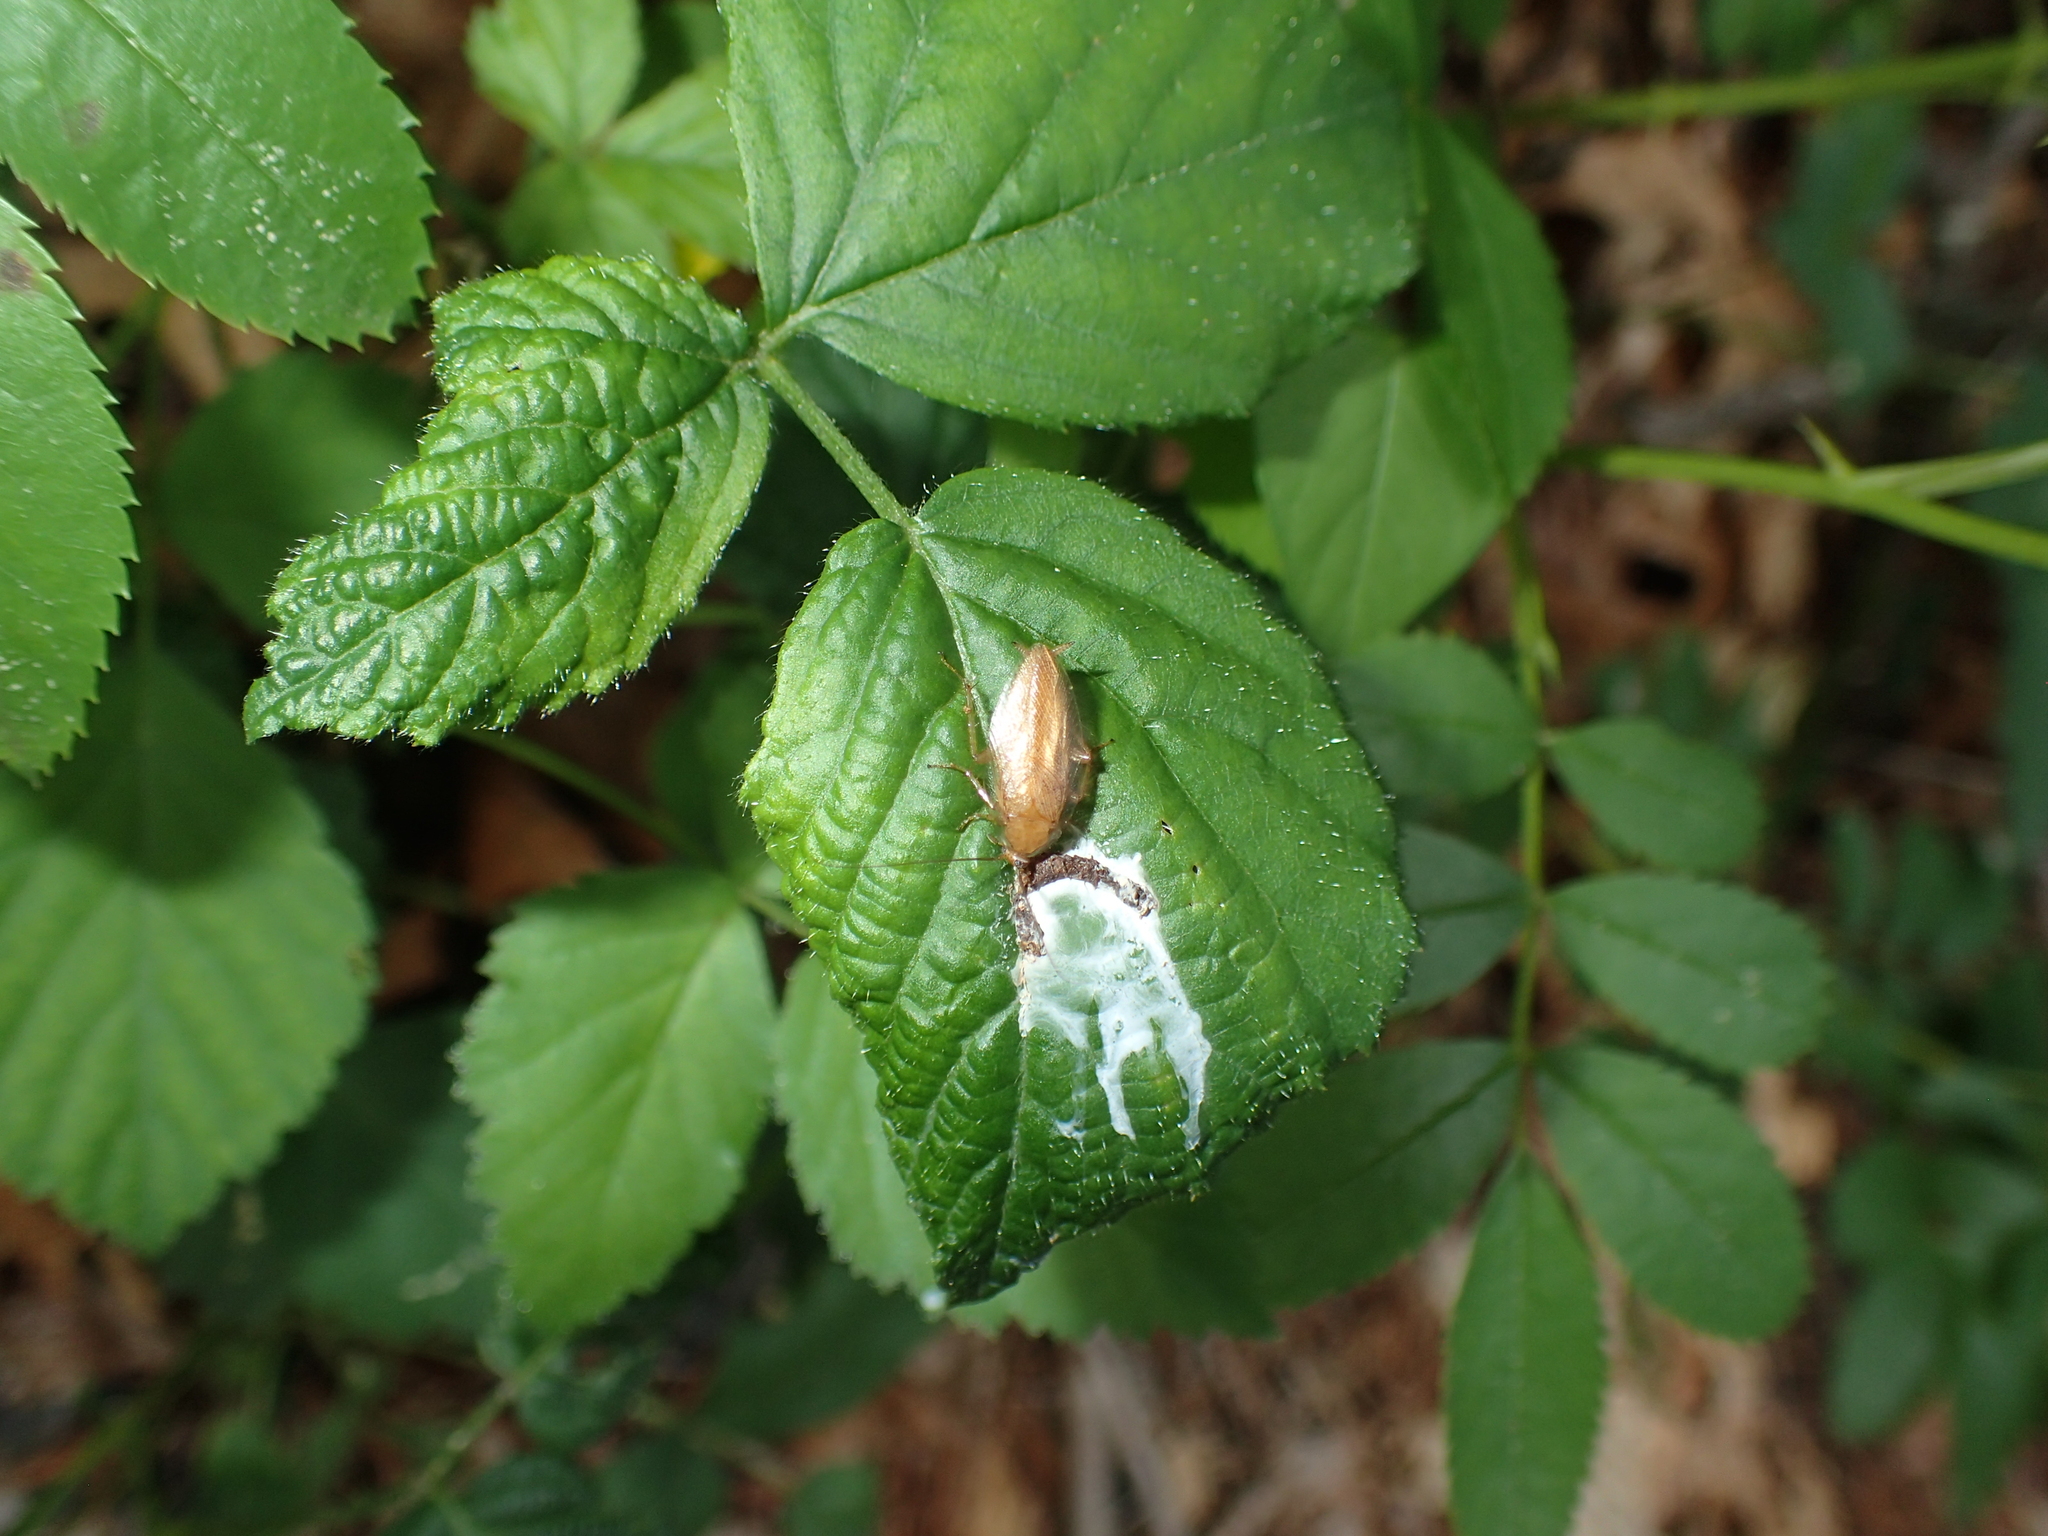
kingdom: Animalia
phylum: Arthropoda
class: Insecta
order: Blattodea
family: Ectobiidae
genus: Ectobius
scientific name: Ectobius pallidus
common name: Tawny cockroach
